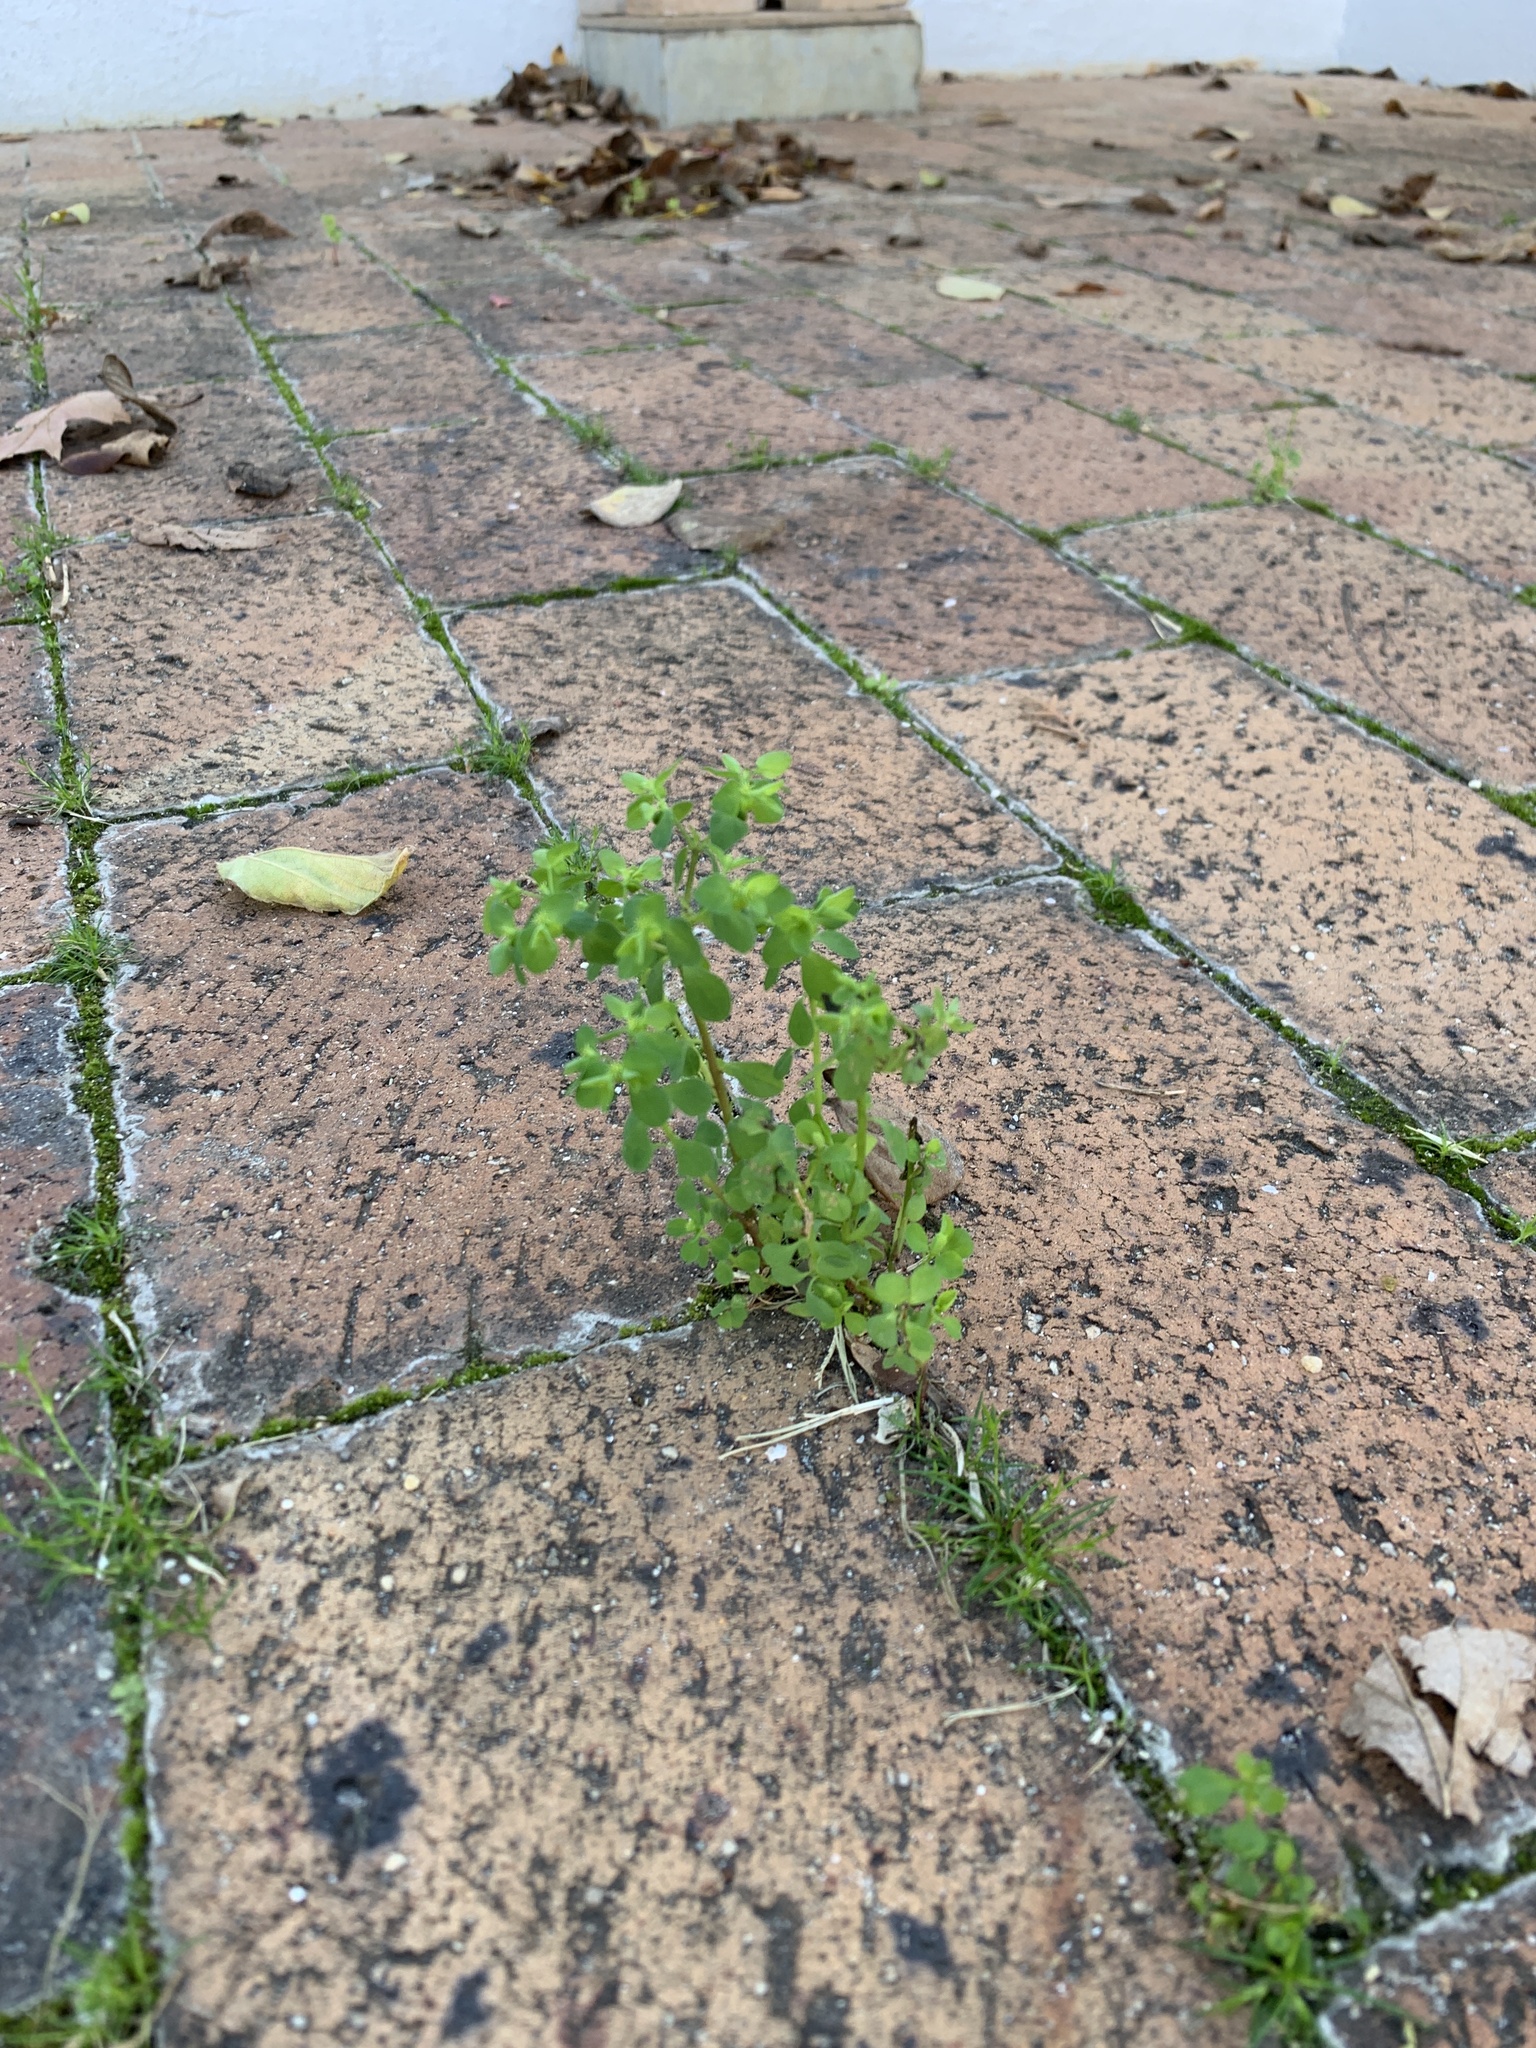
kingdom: Plantae
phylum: Tracheophyta
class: Magnoliopsida
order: Malpighiales
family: Euphorbiaceae
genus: Euphorbia
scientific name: Euphorbia peplus
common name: Petty spurge
